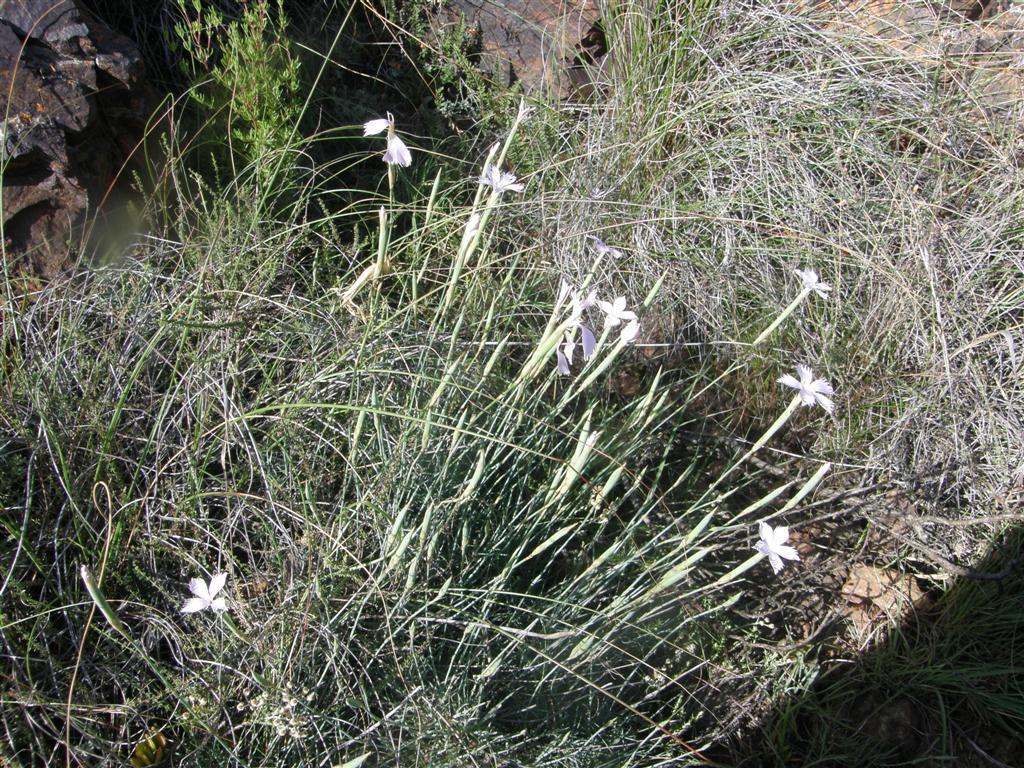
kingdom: Plantae
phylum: Tracheophyta
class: Magnoliopsida
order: Caryophyllales
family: Caryophyllaceae
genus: Dianthus
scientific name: Dianthus thunbergii
